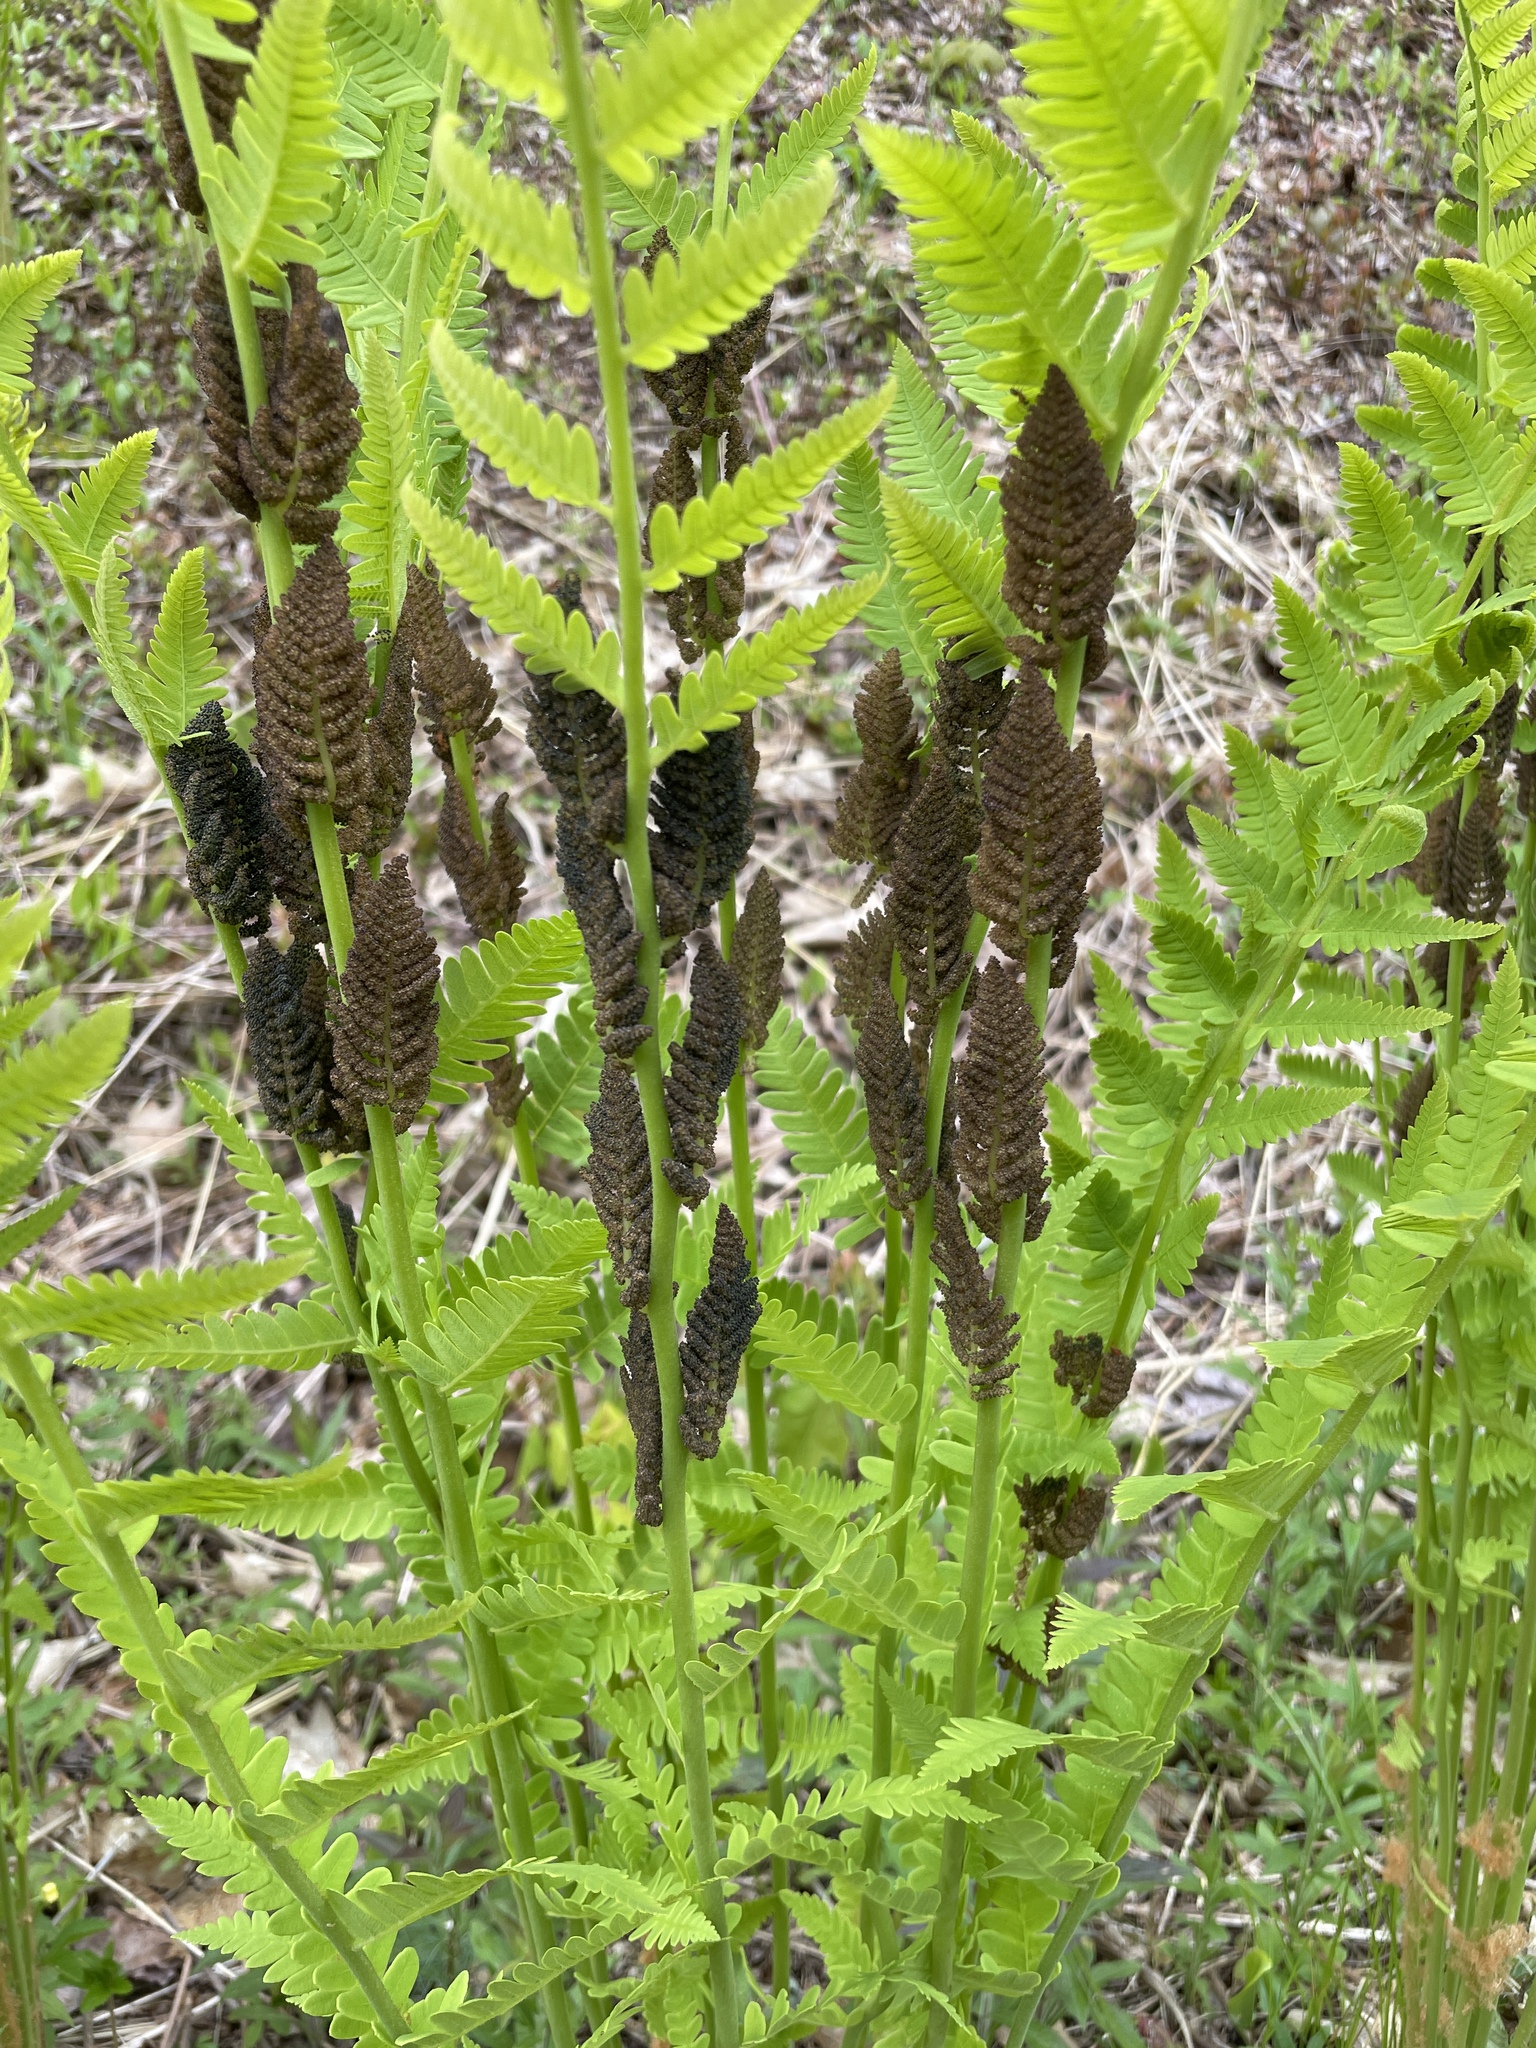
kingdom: Plantae
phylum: Tracheophyta
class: Polypodiopsida
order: Osmundales
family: Osmundaceae
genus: Claytosmunda
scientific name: Claytosmunda claytoniana
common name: Clayton's fern
